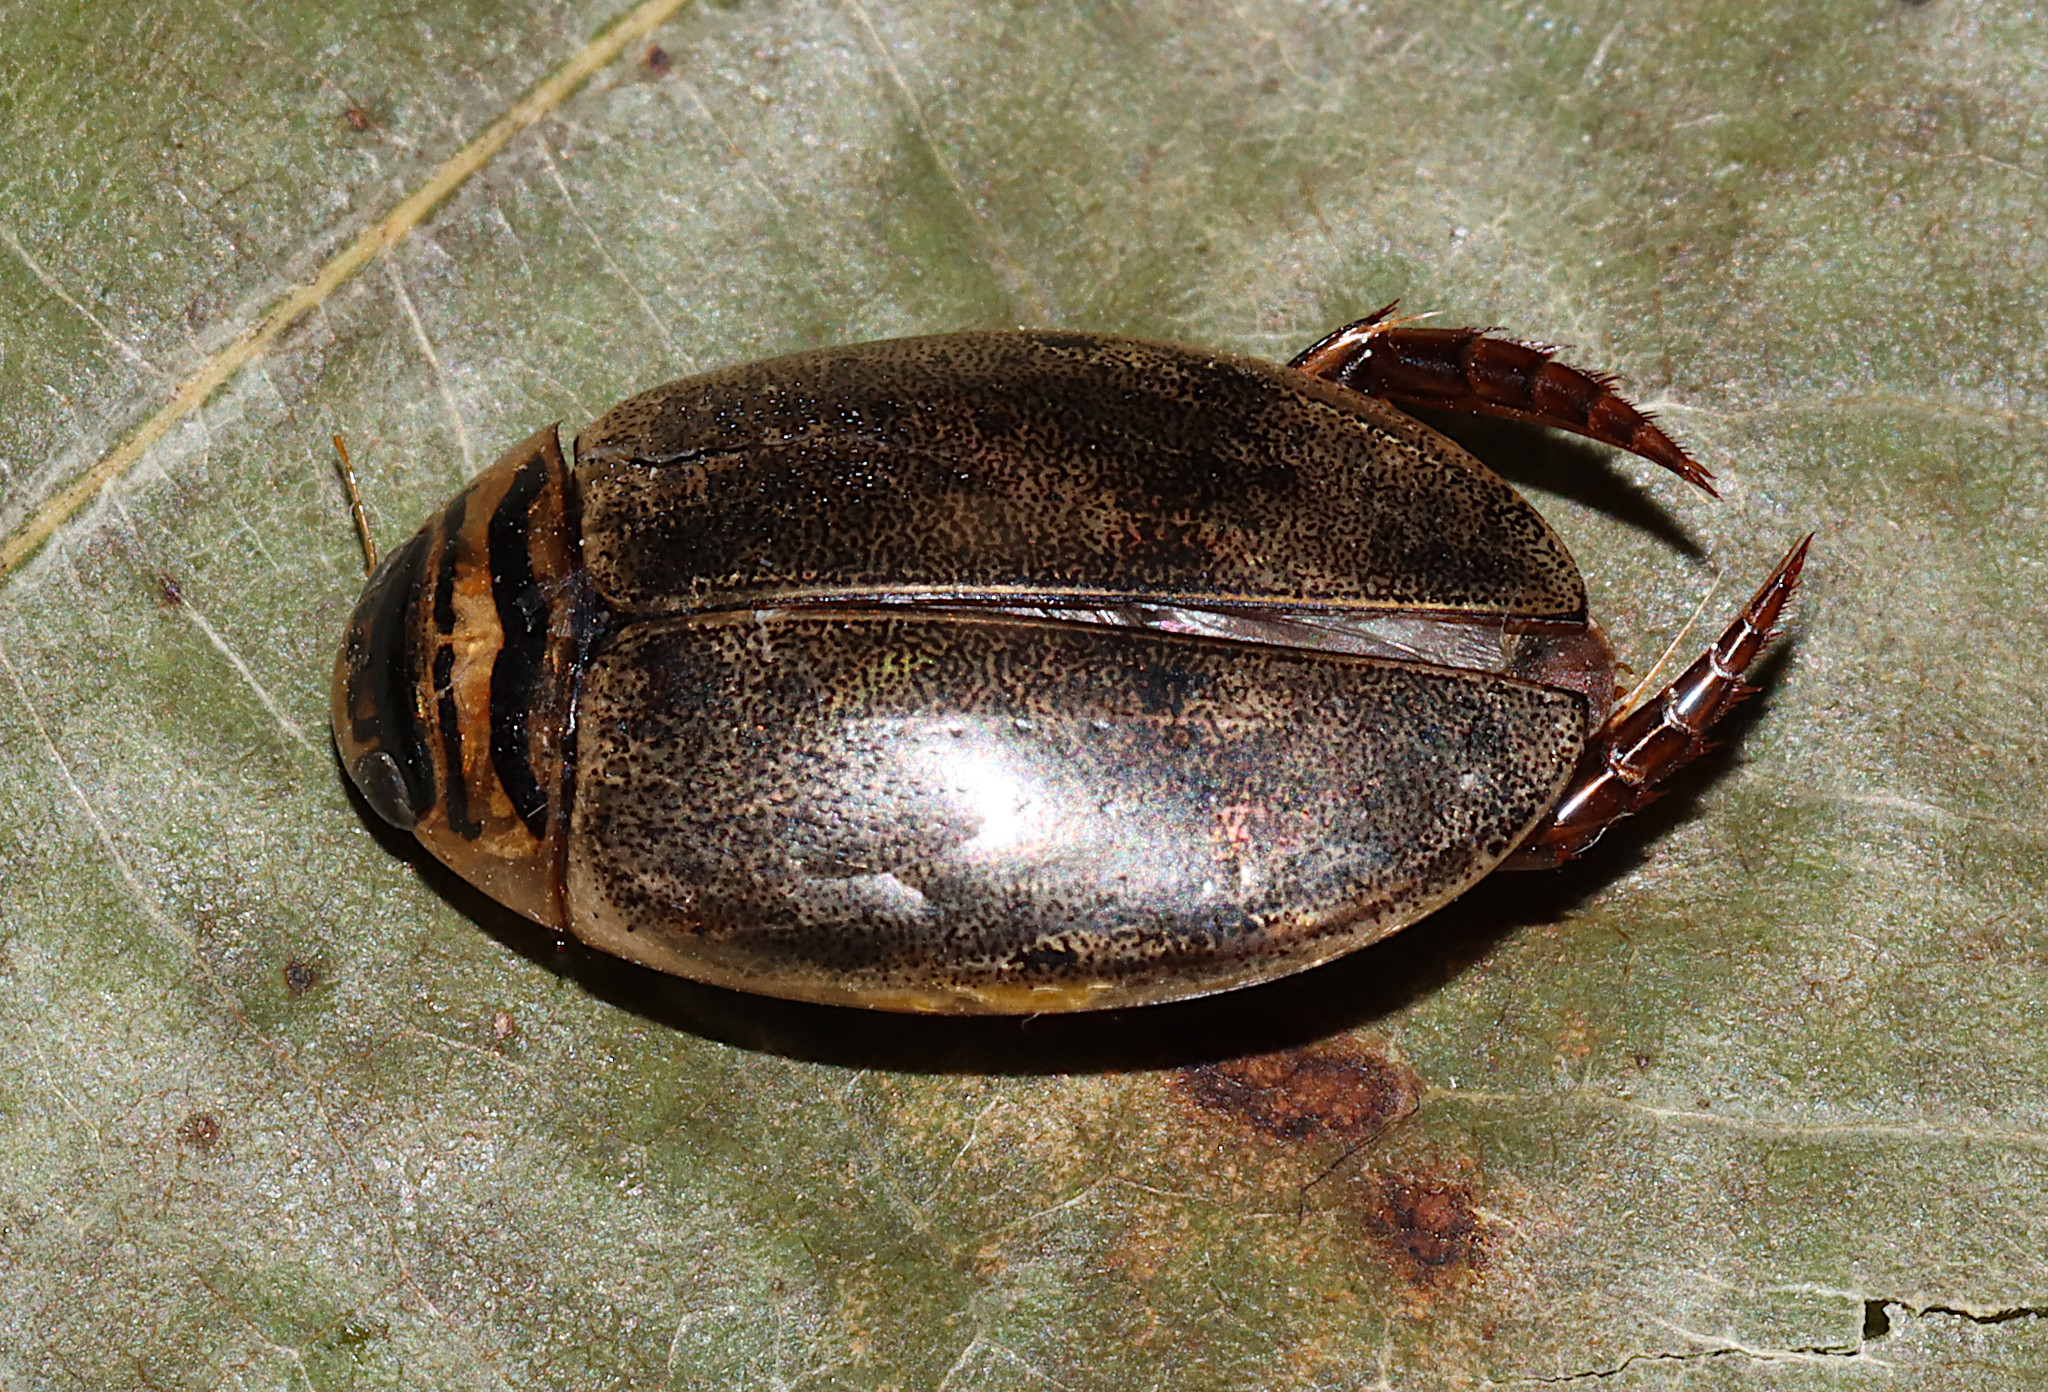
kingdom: Animalia
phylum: Arthropoda
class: Insecta
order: Coleoptera
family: Dytiscidae
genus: Thermonectus
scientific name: Thermonectus nigrofasciatus
